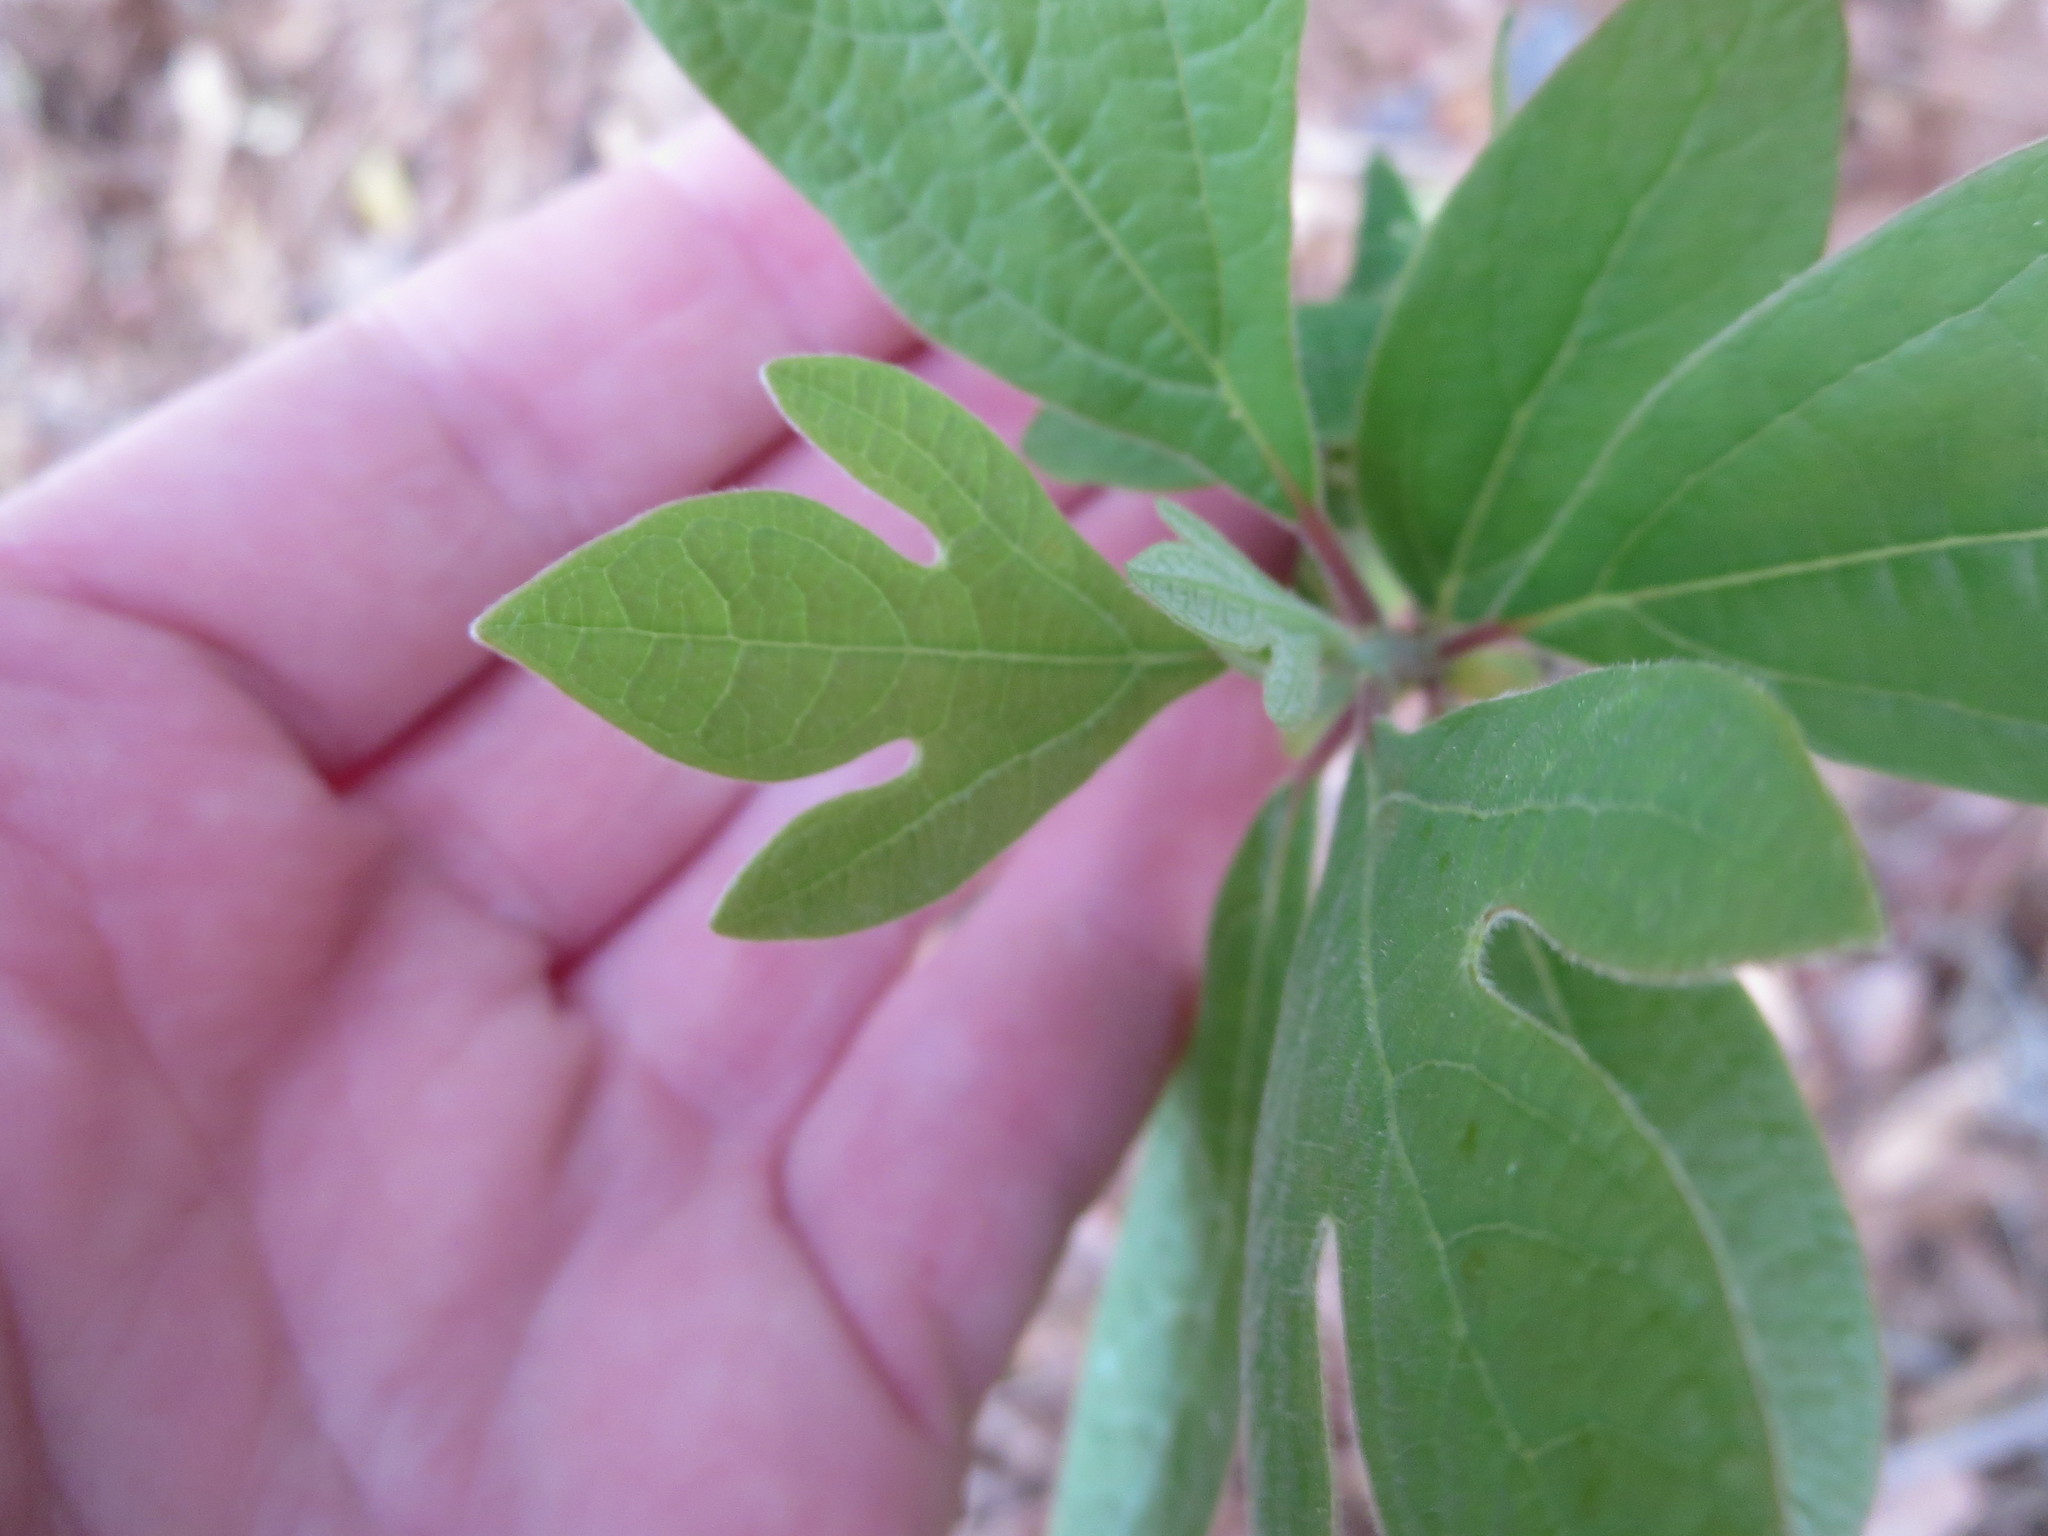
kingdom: Plantae
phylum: Tracheophyta
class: Magnoliopsida
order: Laurales
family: Lauraceae
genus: Sassafras
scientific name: Sassafras albidum
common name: Sassafras
